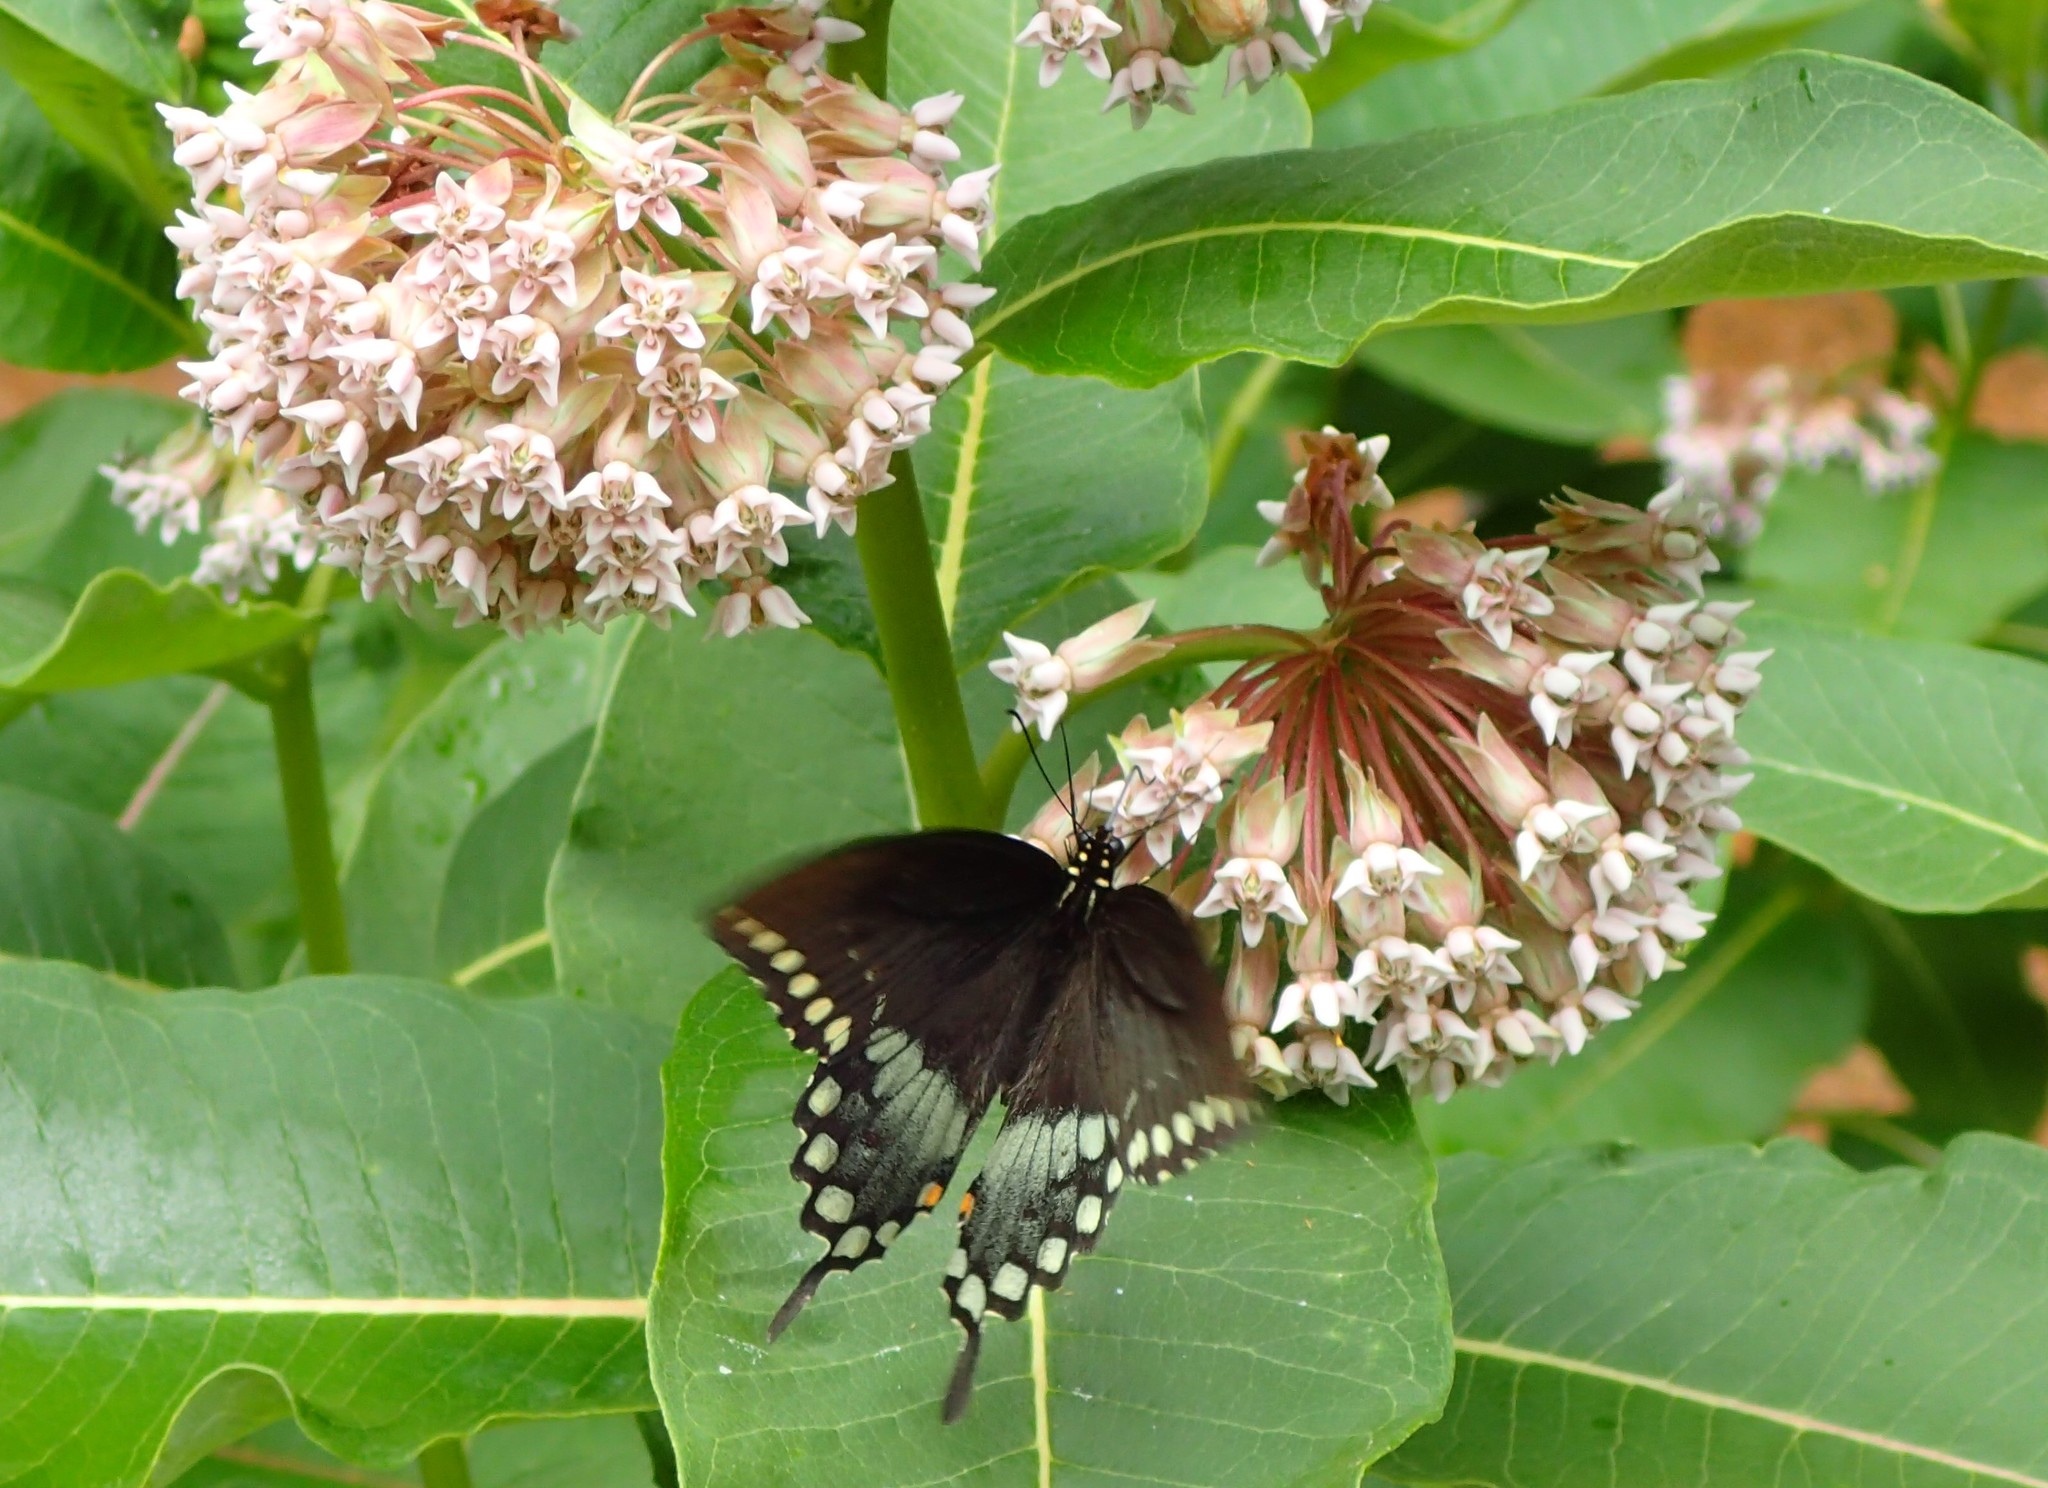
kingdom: Animalia
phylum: Arthropoda
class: Insecta
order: Lepidoptera
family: Papilionidae
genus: Papilio
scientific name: Papilio troilus
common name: Spicebush swallowtail
